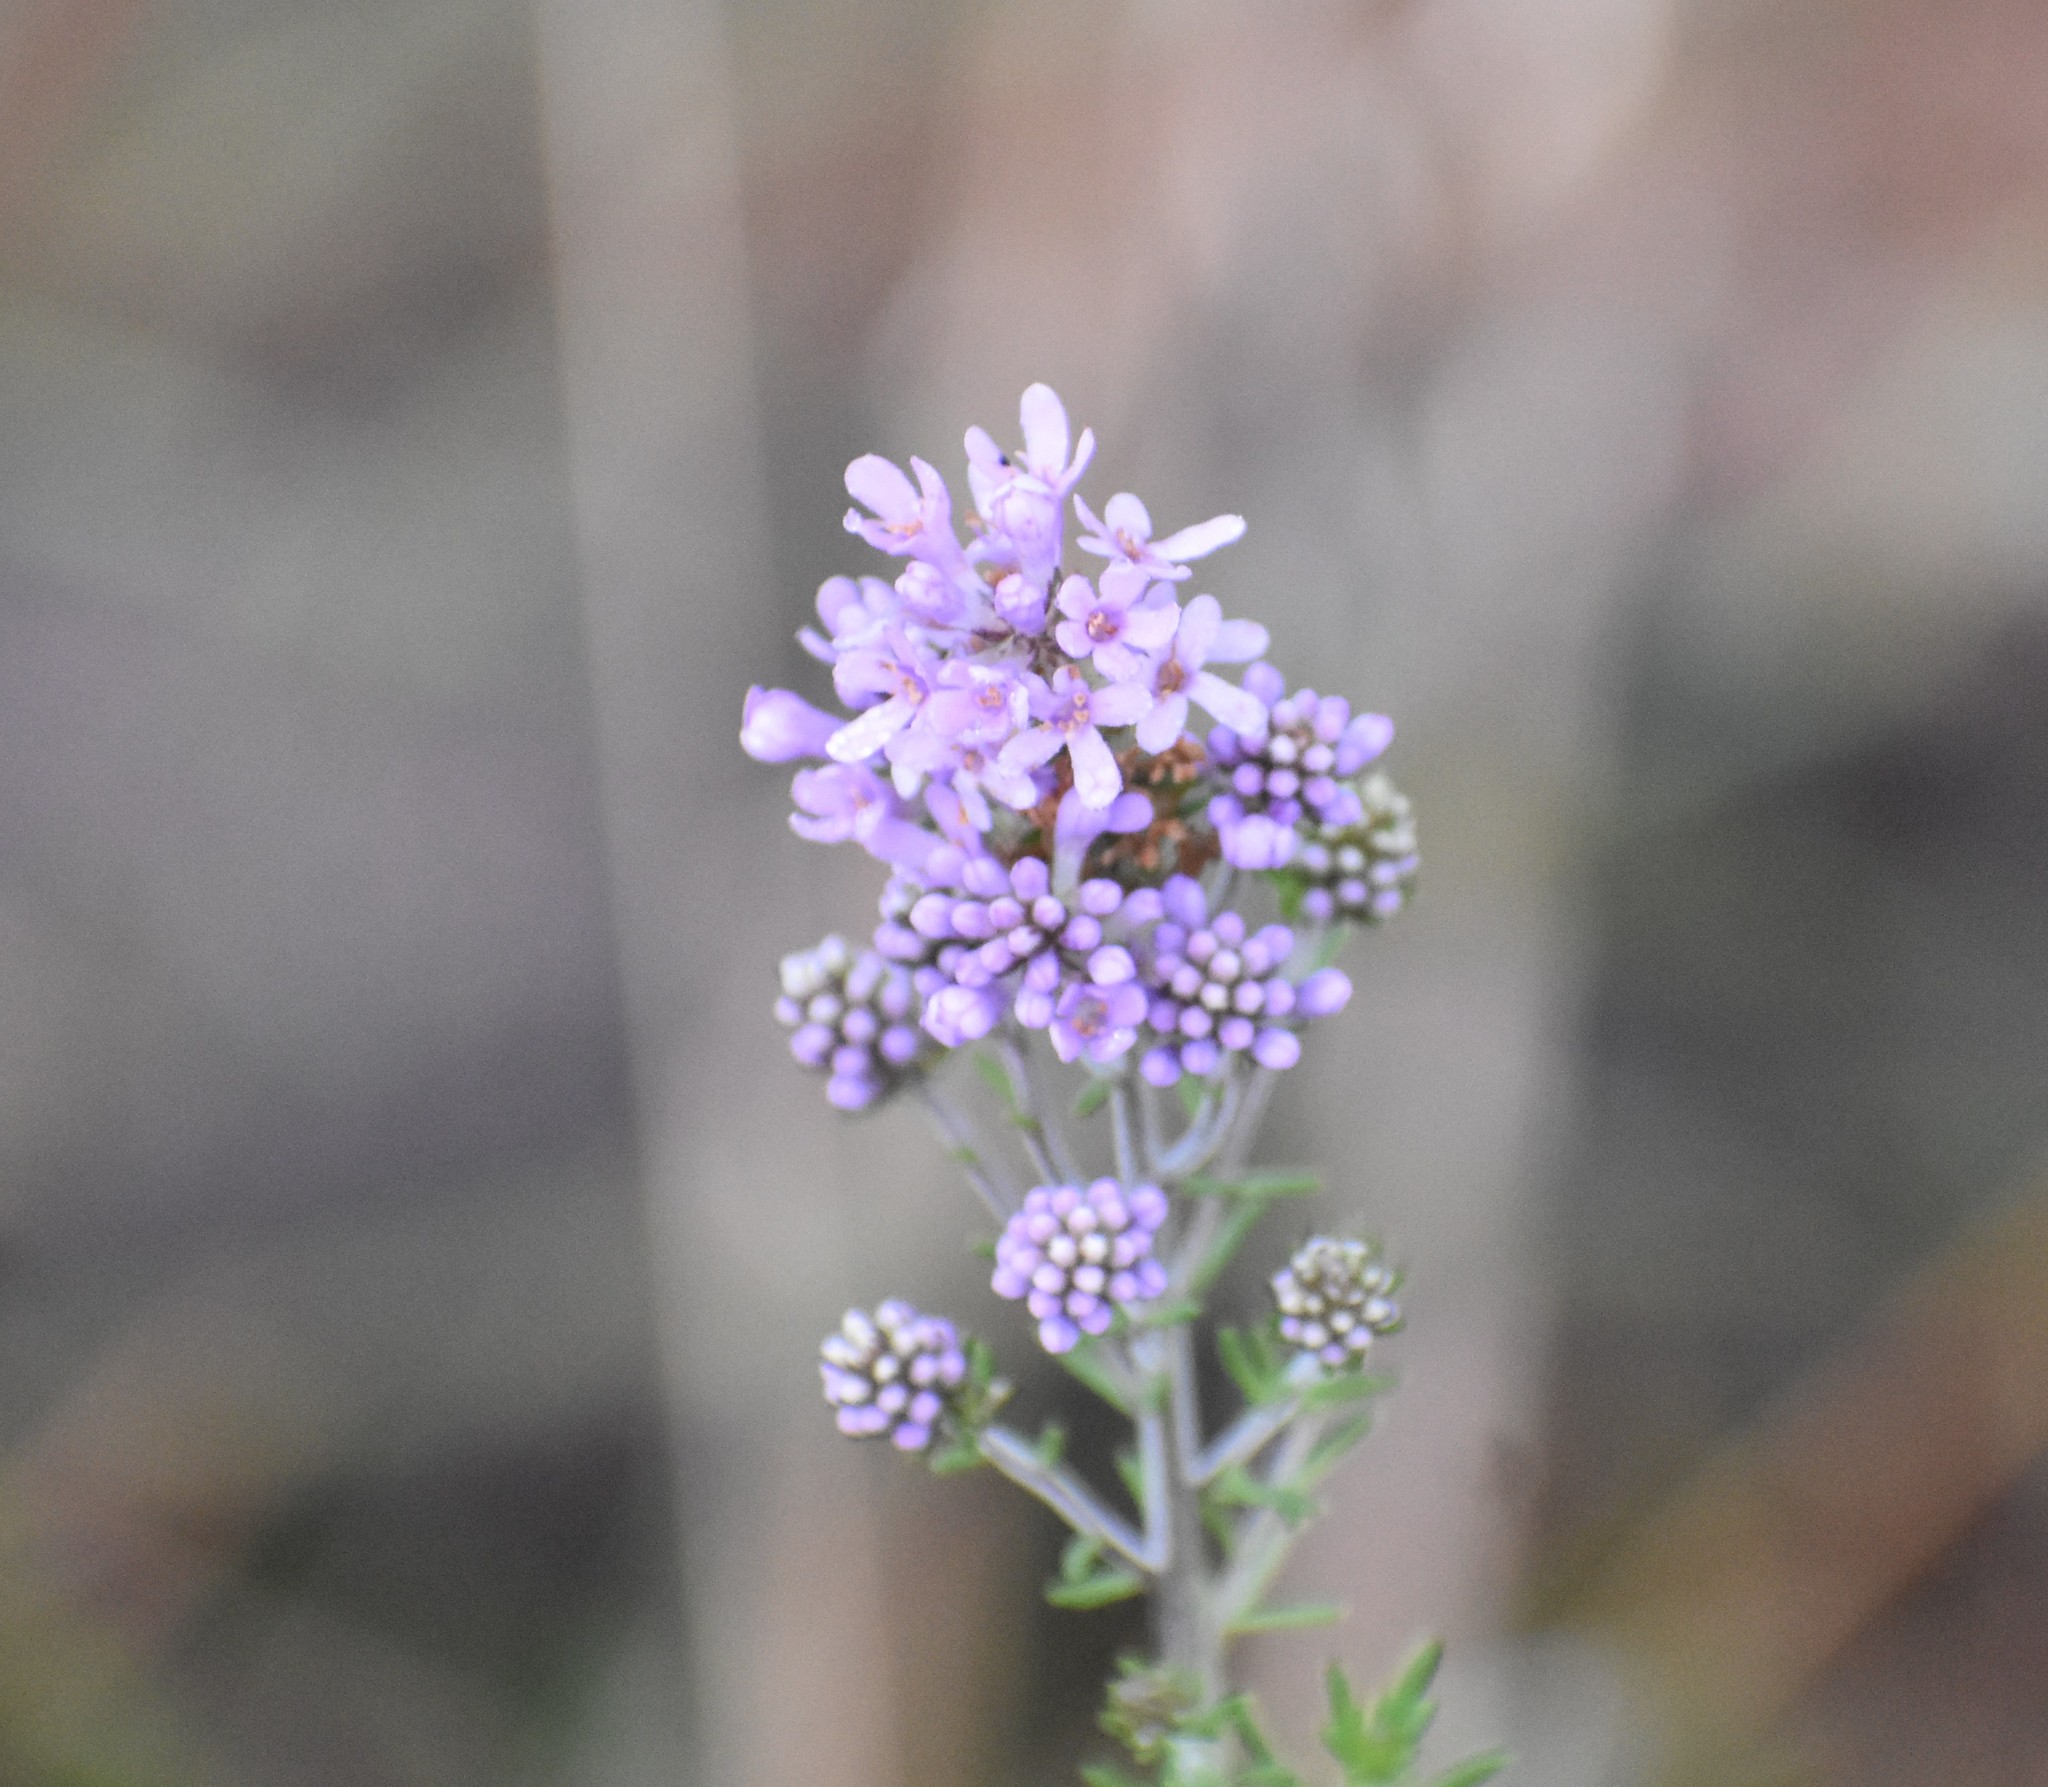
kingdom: Plantae
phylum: Tracheophyta
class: Magnoliopsida
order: Lamiales
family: Scrophulariaceae
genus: Selago
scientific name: Selago villicaulis
